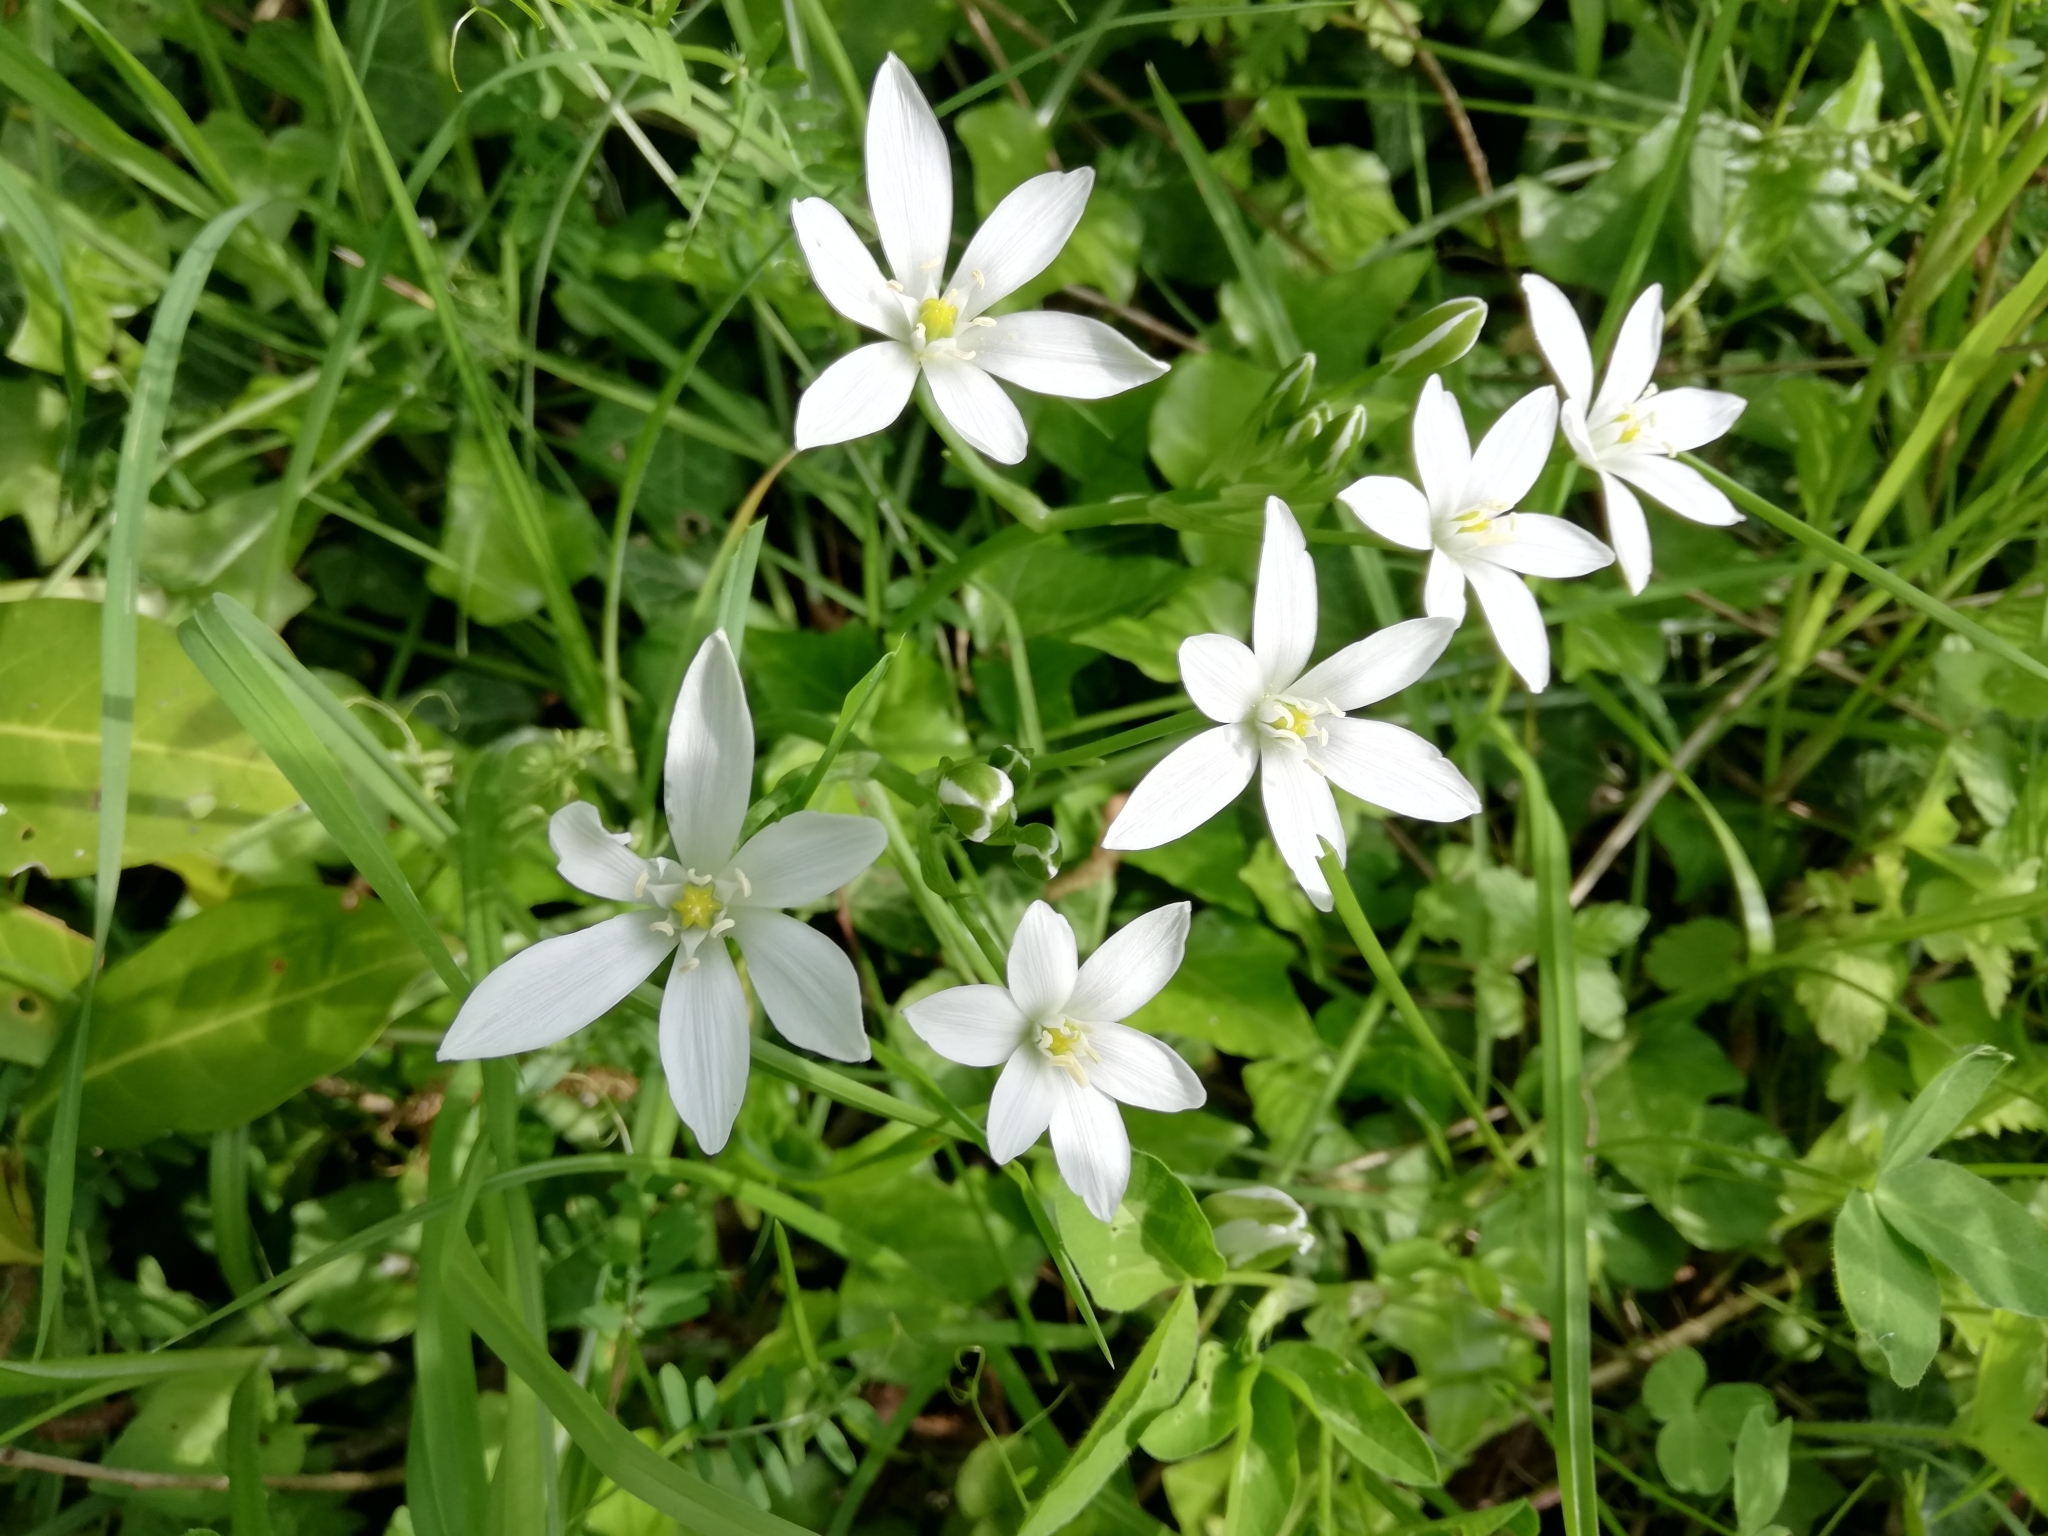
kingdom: Plantae
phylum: Tracheophyta
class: Liliopsida
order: Asparagales
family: Asparagaceae
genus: Ornithogalum
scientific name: Ornithogalum umbellatum
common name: Garden star-of-bethlehem
